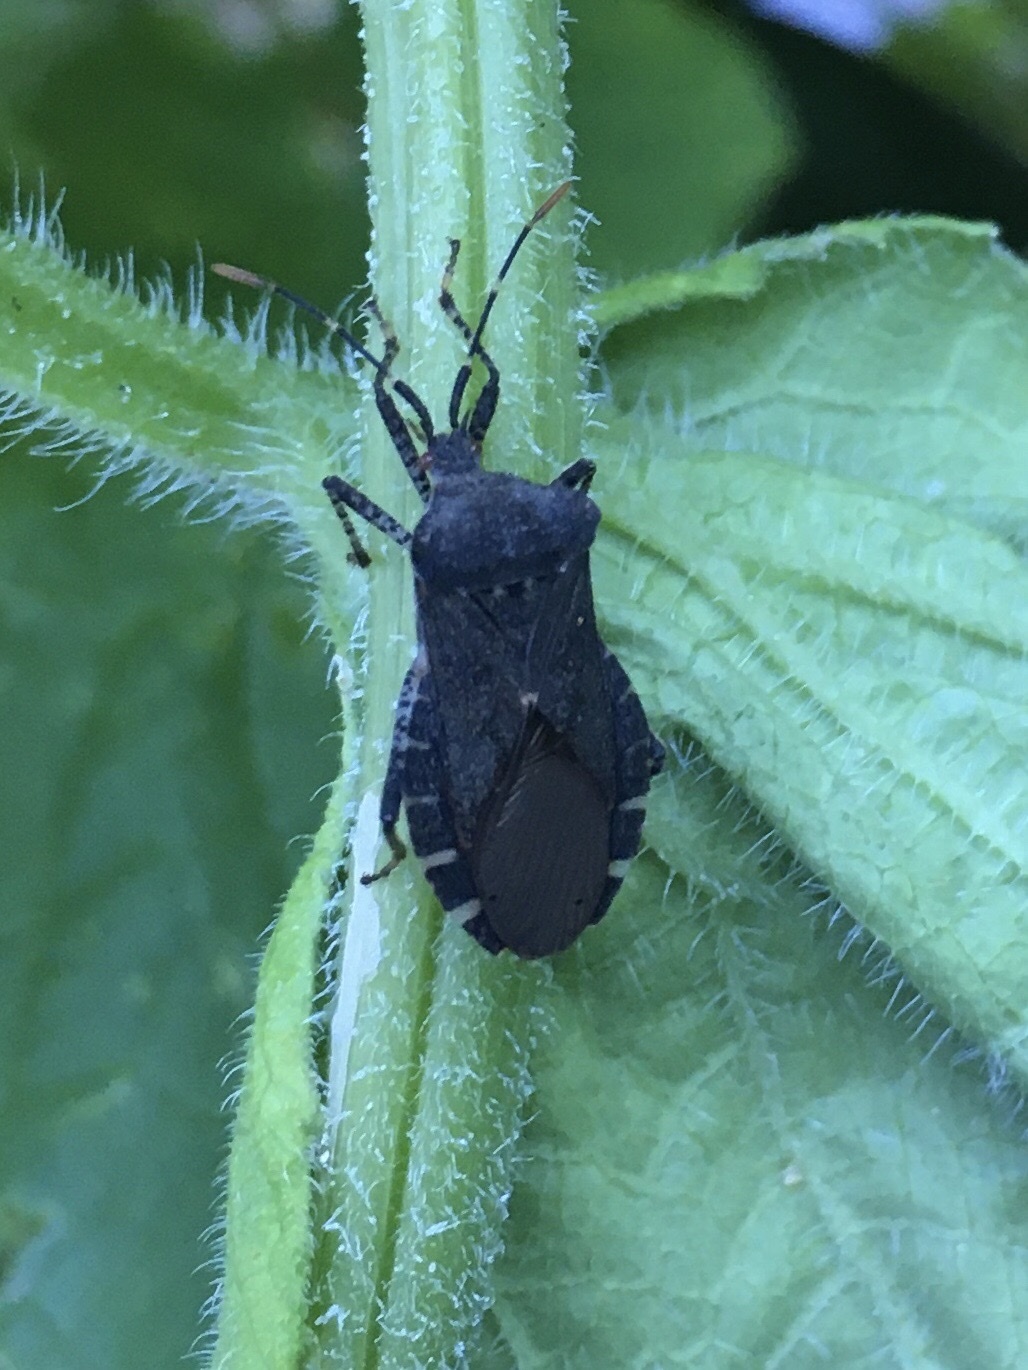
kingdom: Animalia
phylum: Arthropoda
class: Insecta
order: Hemiptera
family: Coreidae
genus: Anasa
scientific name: Anasa armigera
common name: Horned squash bug
